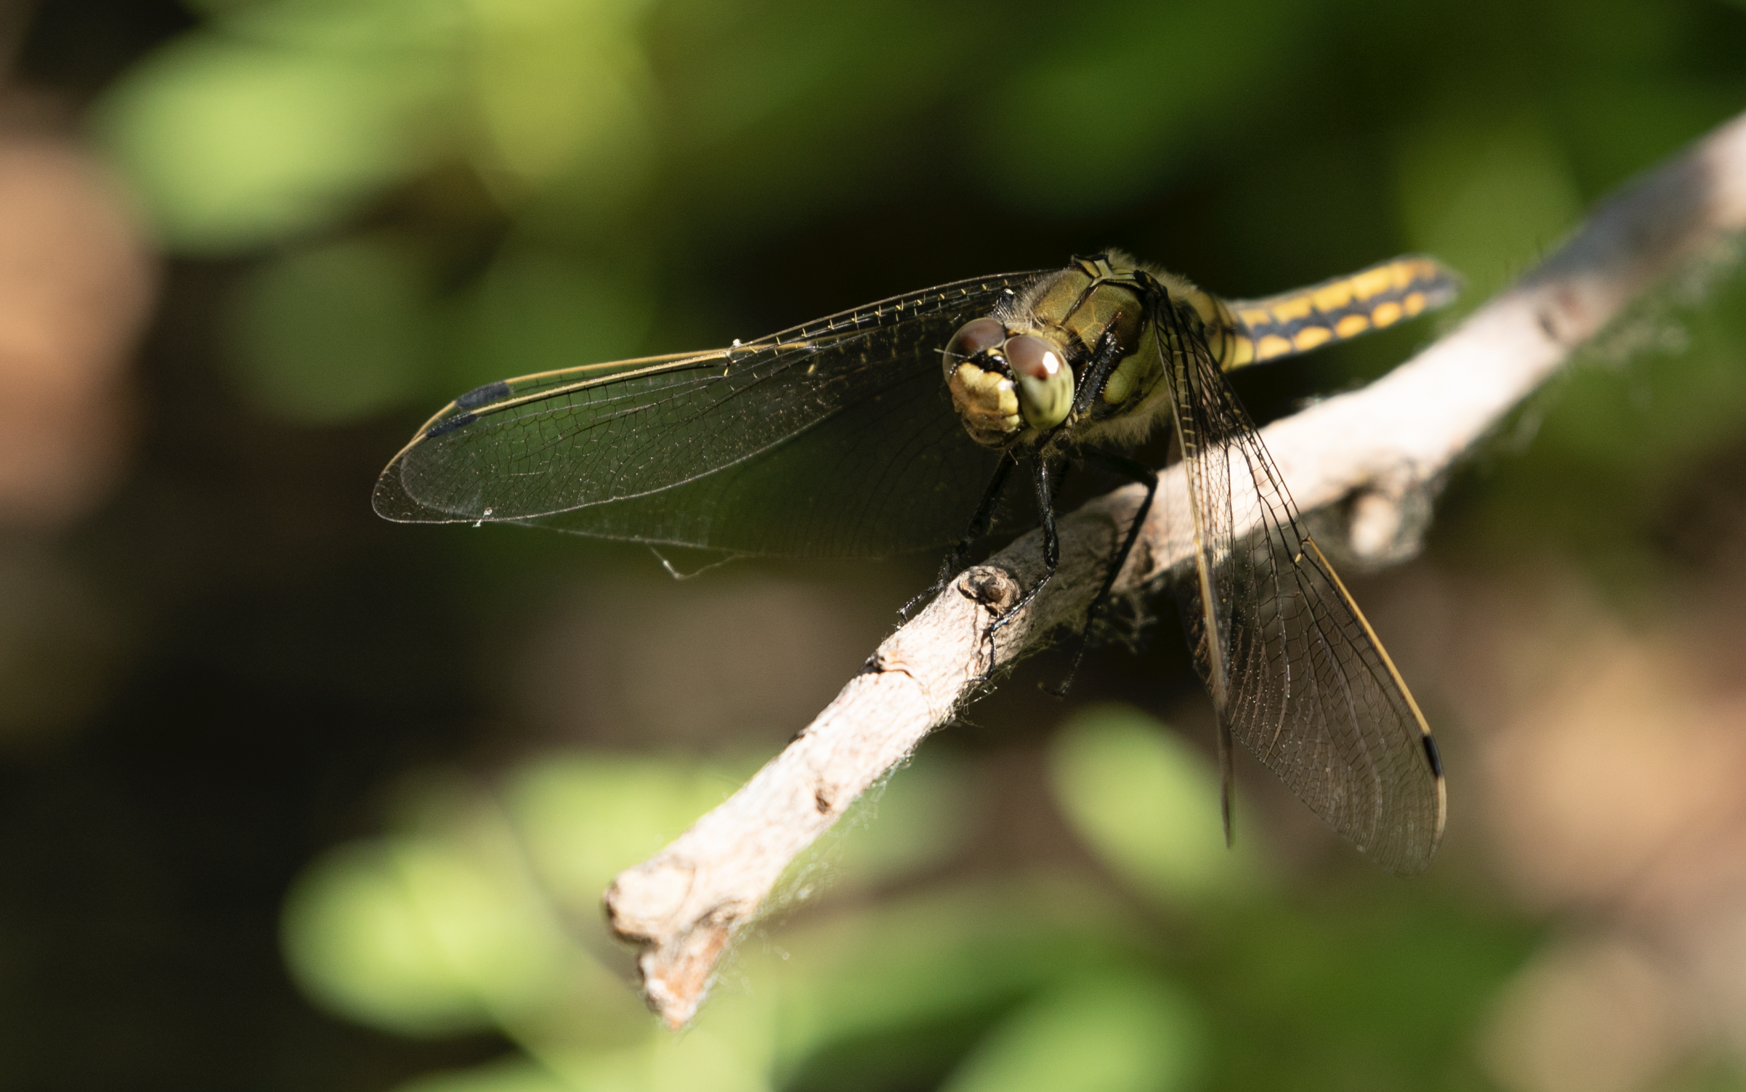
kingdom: Animalia
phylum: Arthropoda
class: Insecta
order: Odonata
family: Libellulidae
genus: Orthetrum
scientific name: Orthetrum cancellatum
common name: Black-tailed skimmer
